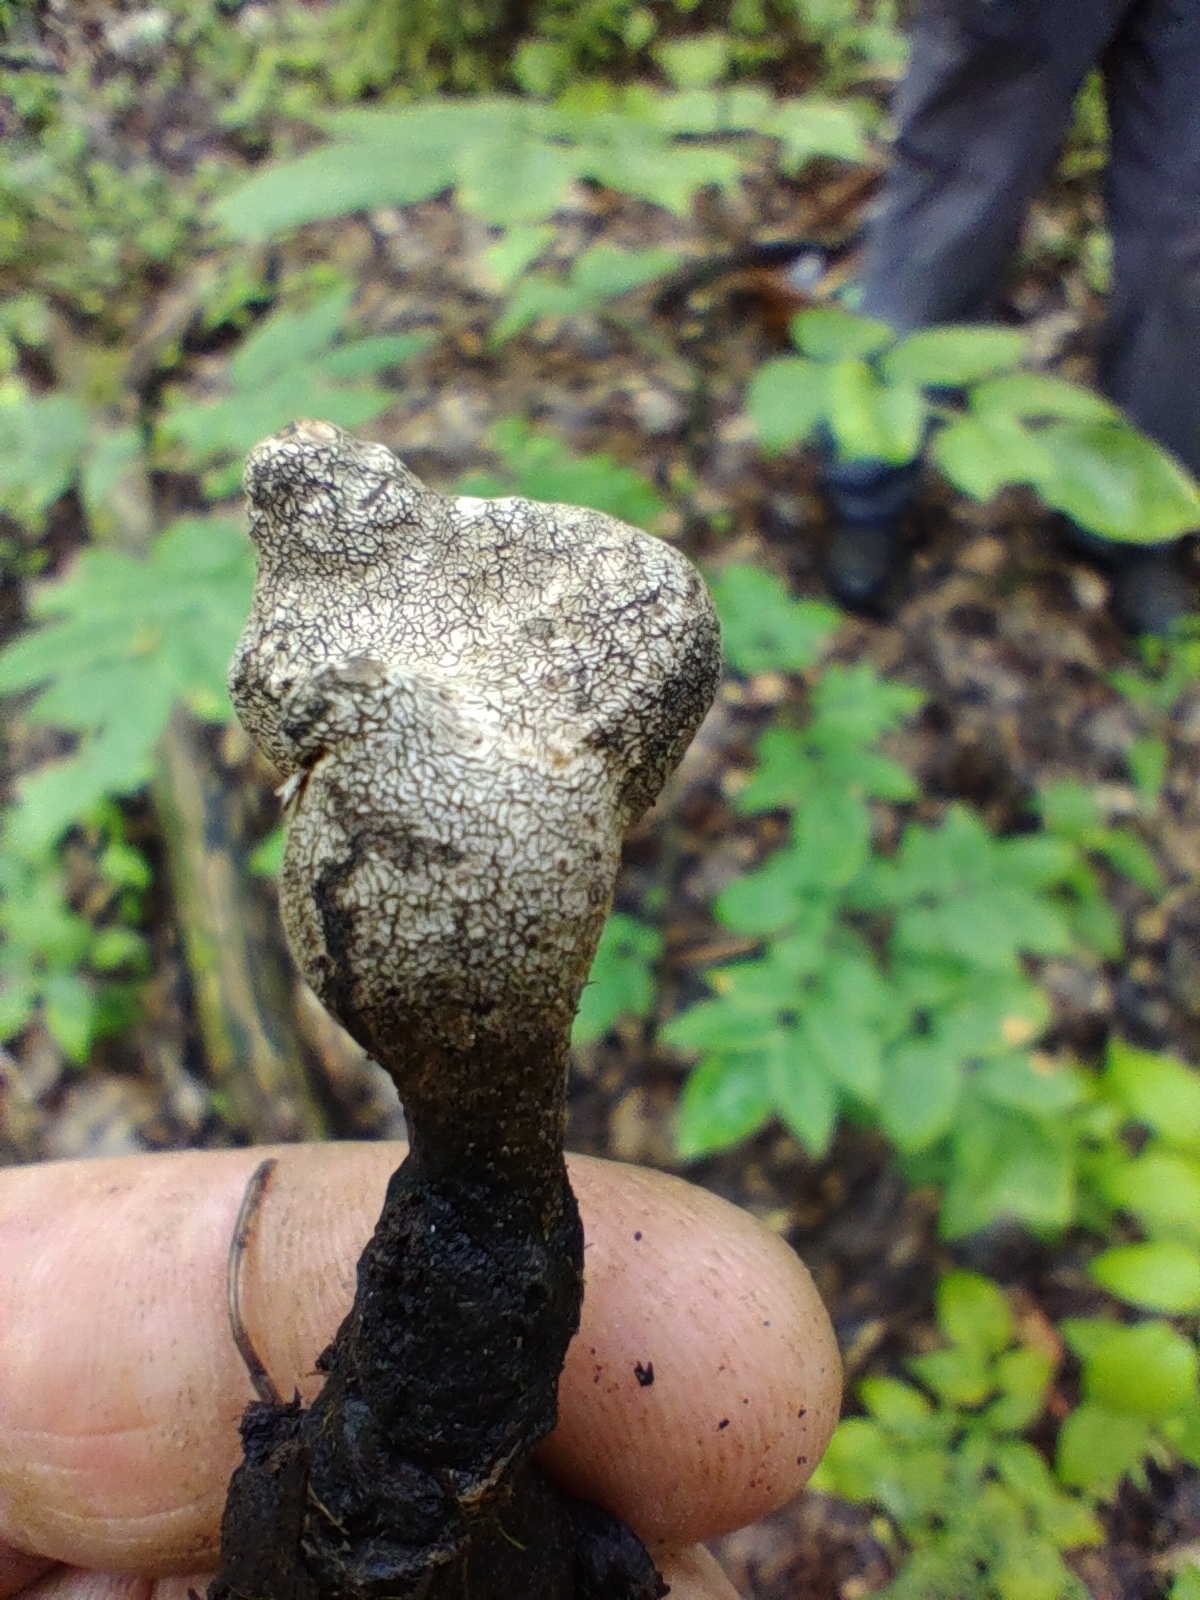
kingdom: Fungi
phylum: Ascomycota
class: Sordariomycetes
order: Xylariales
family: Xylariaceae
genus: Xylaria
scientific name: Xylaria longipes
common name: Dead moll's fingers
